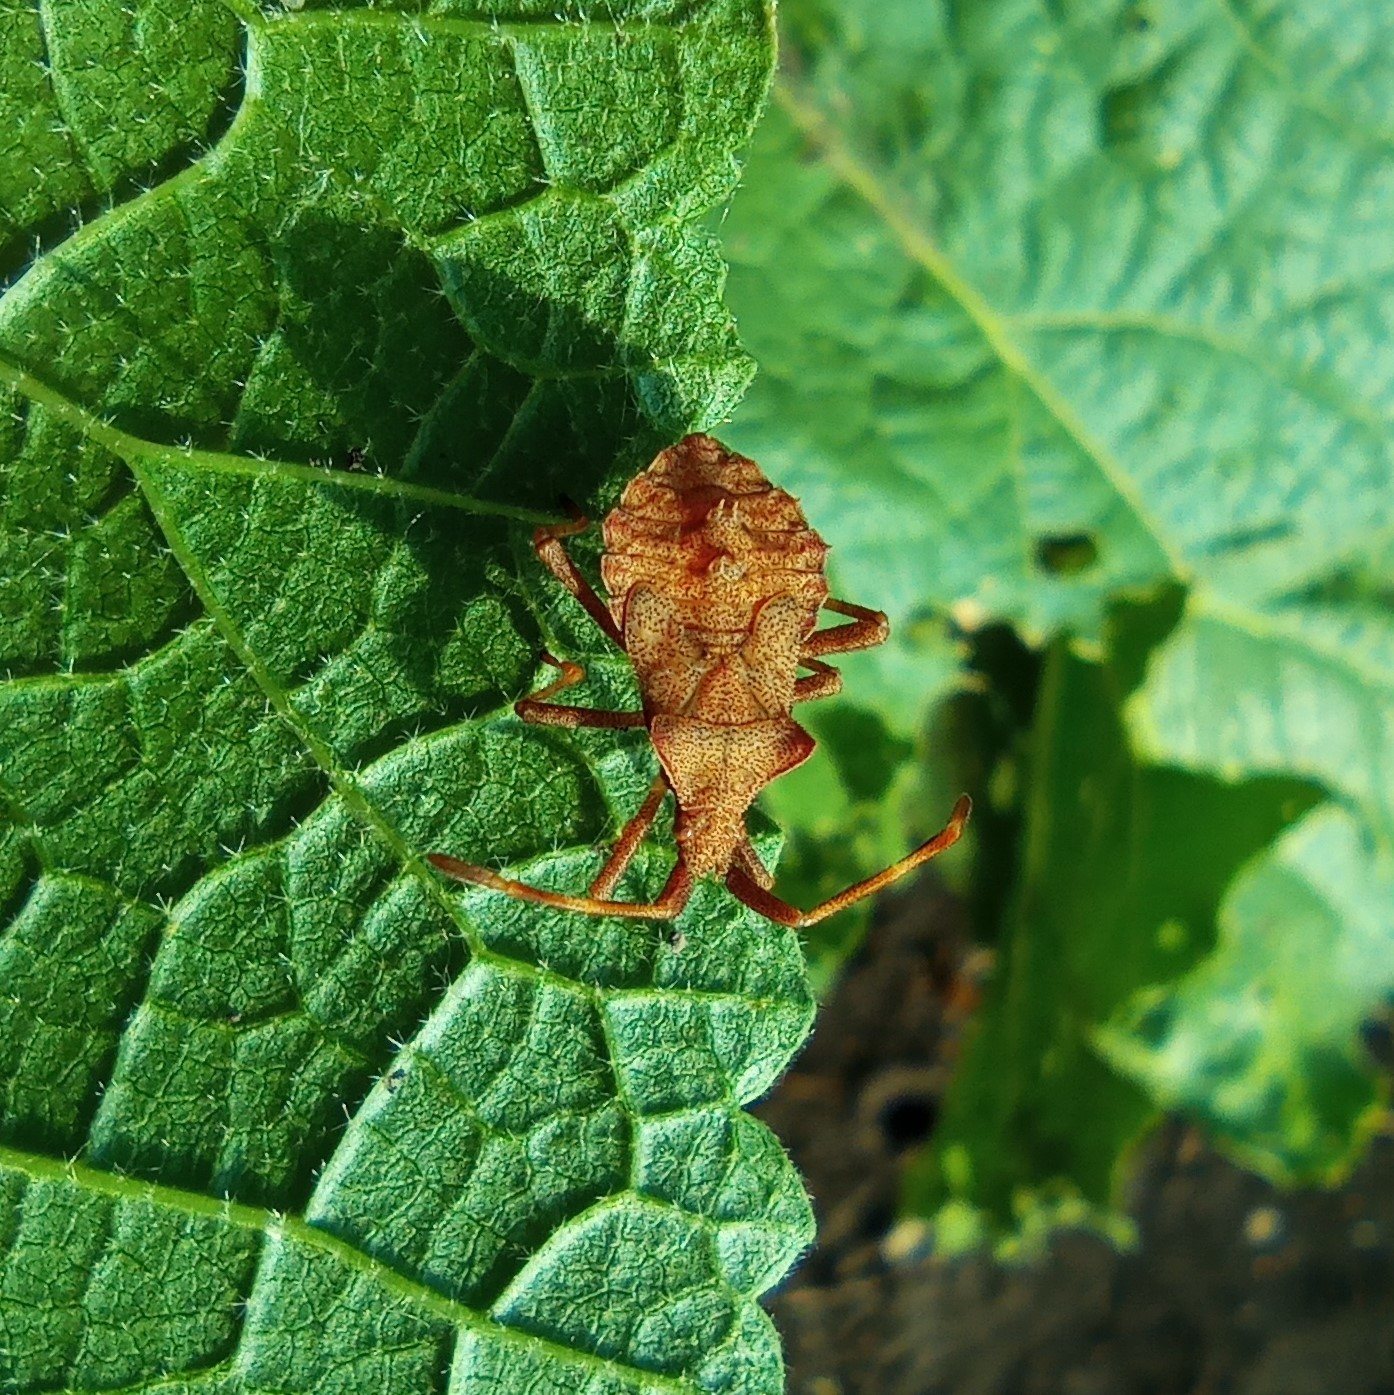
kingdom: Animalia
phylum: Arthropoda
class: Insecta
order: Hemiptera
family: Coreidae
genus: Coreus
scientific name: Coreus marginatus
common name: Dock bug
